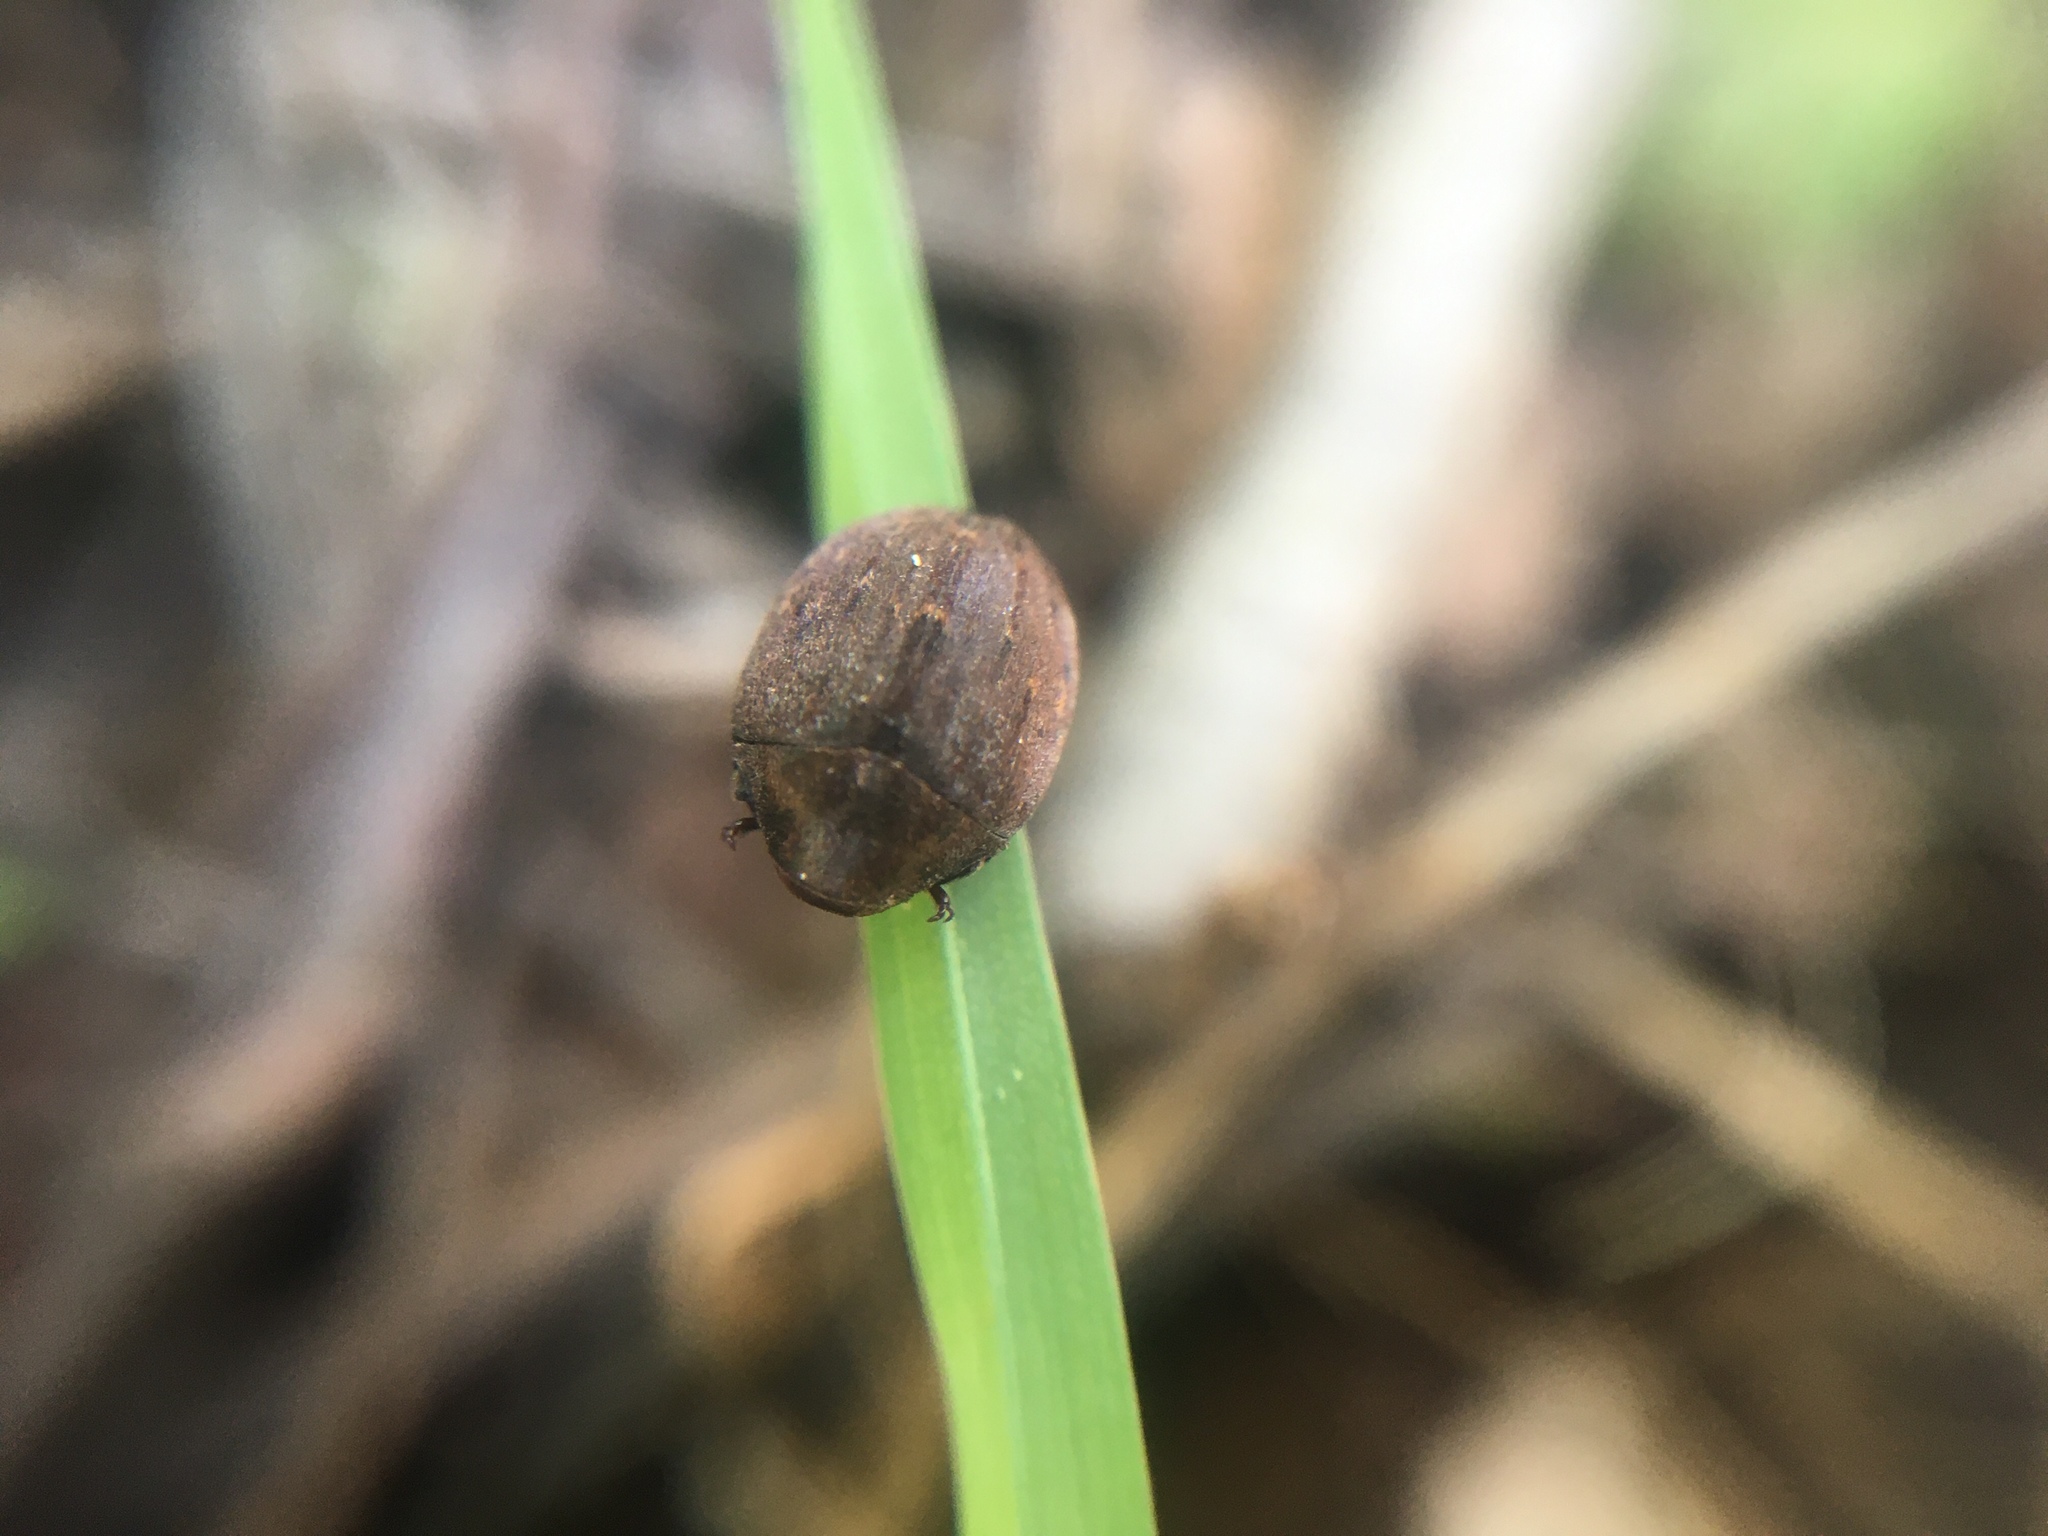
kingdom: Animalia
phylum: Arthropoda
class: Insecta
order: Coleoptera
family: Byrrhidae
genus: Byrrhus
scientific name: Byrrhus pilula
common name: Pill beetle
